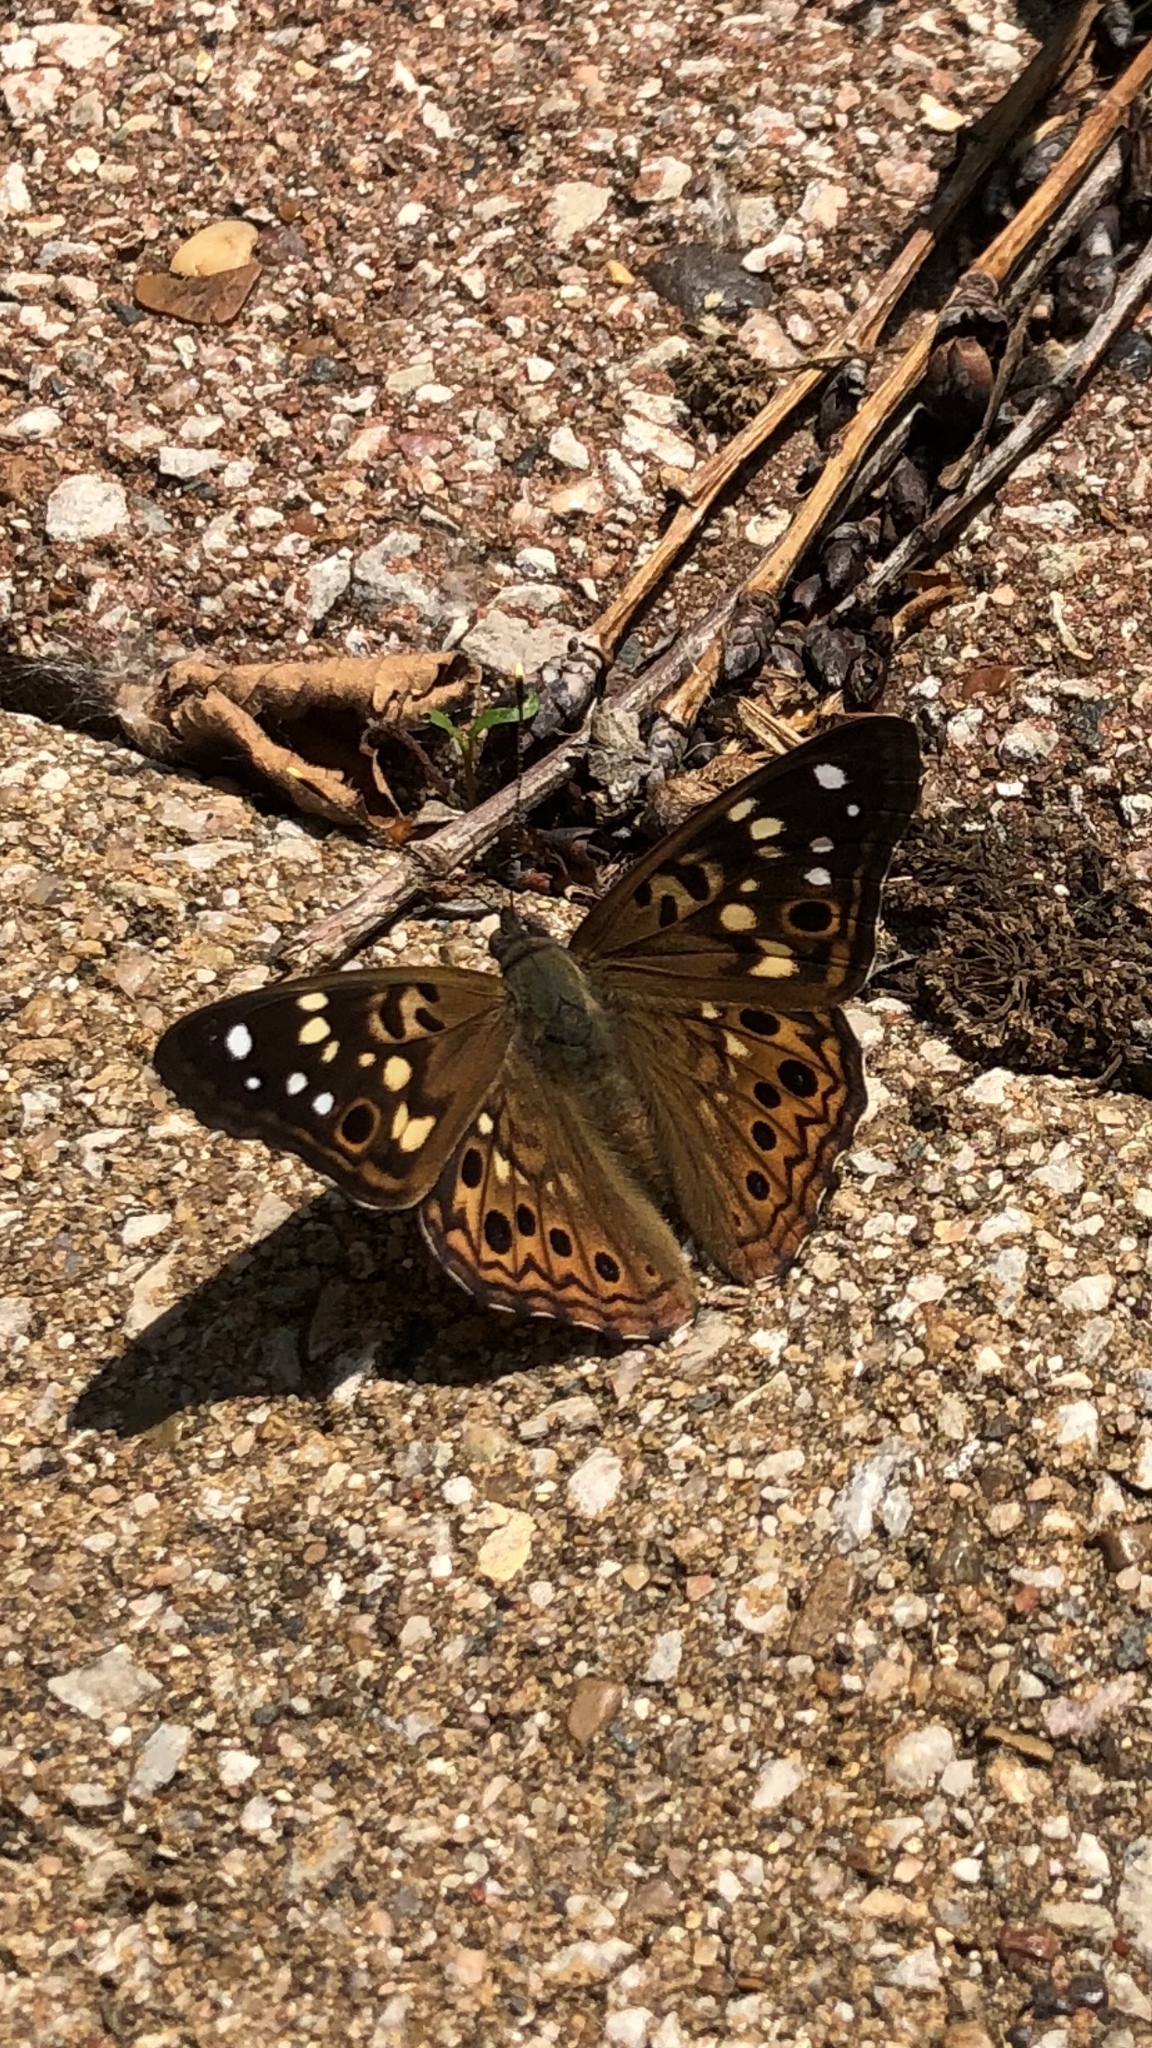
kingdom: Animalia
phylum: Arthropoda
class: Insecta
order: Lepidoptera
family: Nymphalidae
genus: Asterocampa
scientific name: Asterocampa celtis
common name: Hackberry emperor
